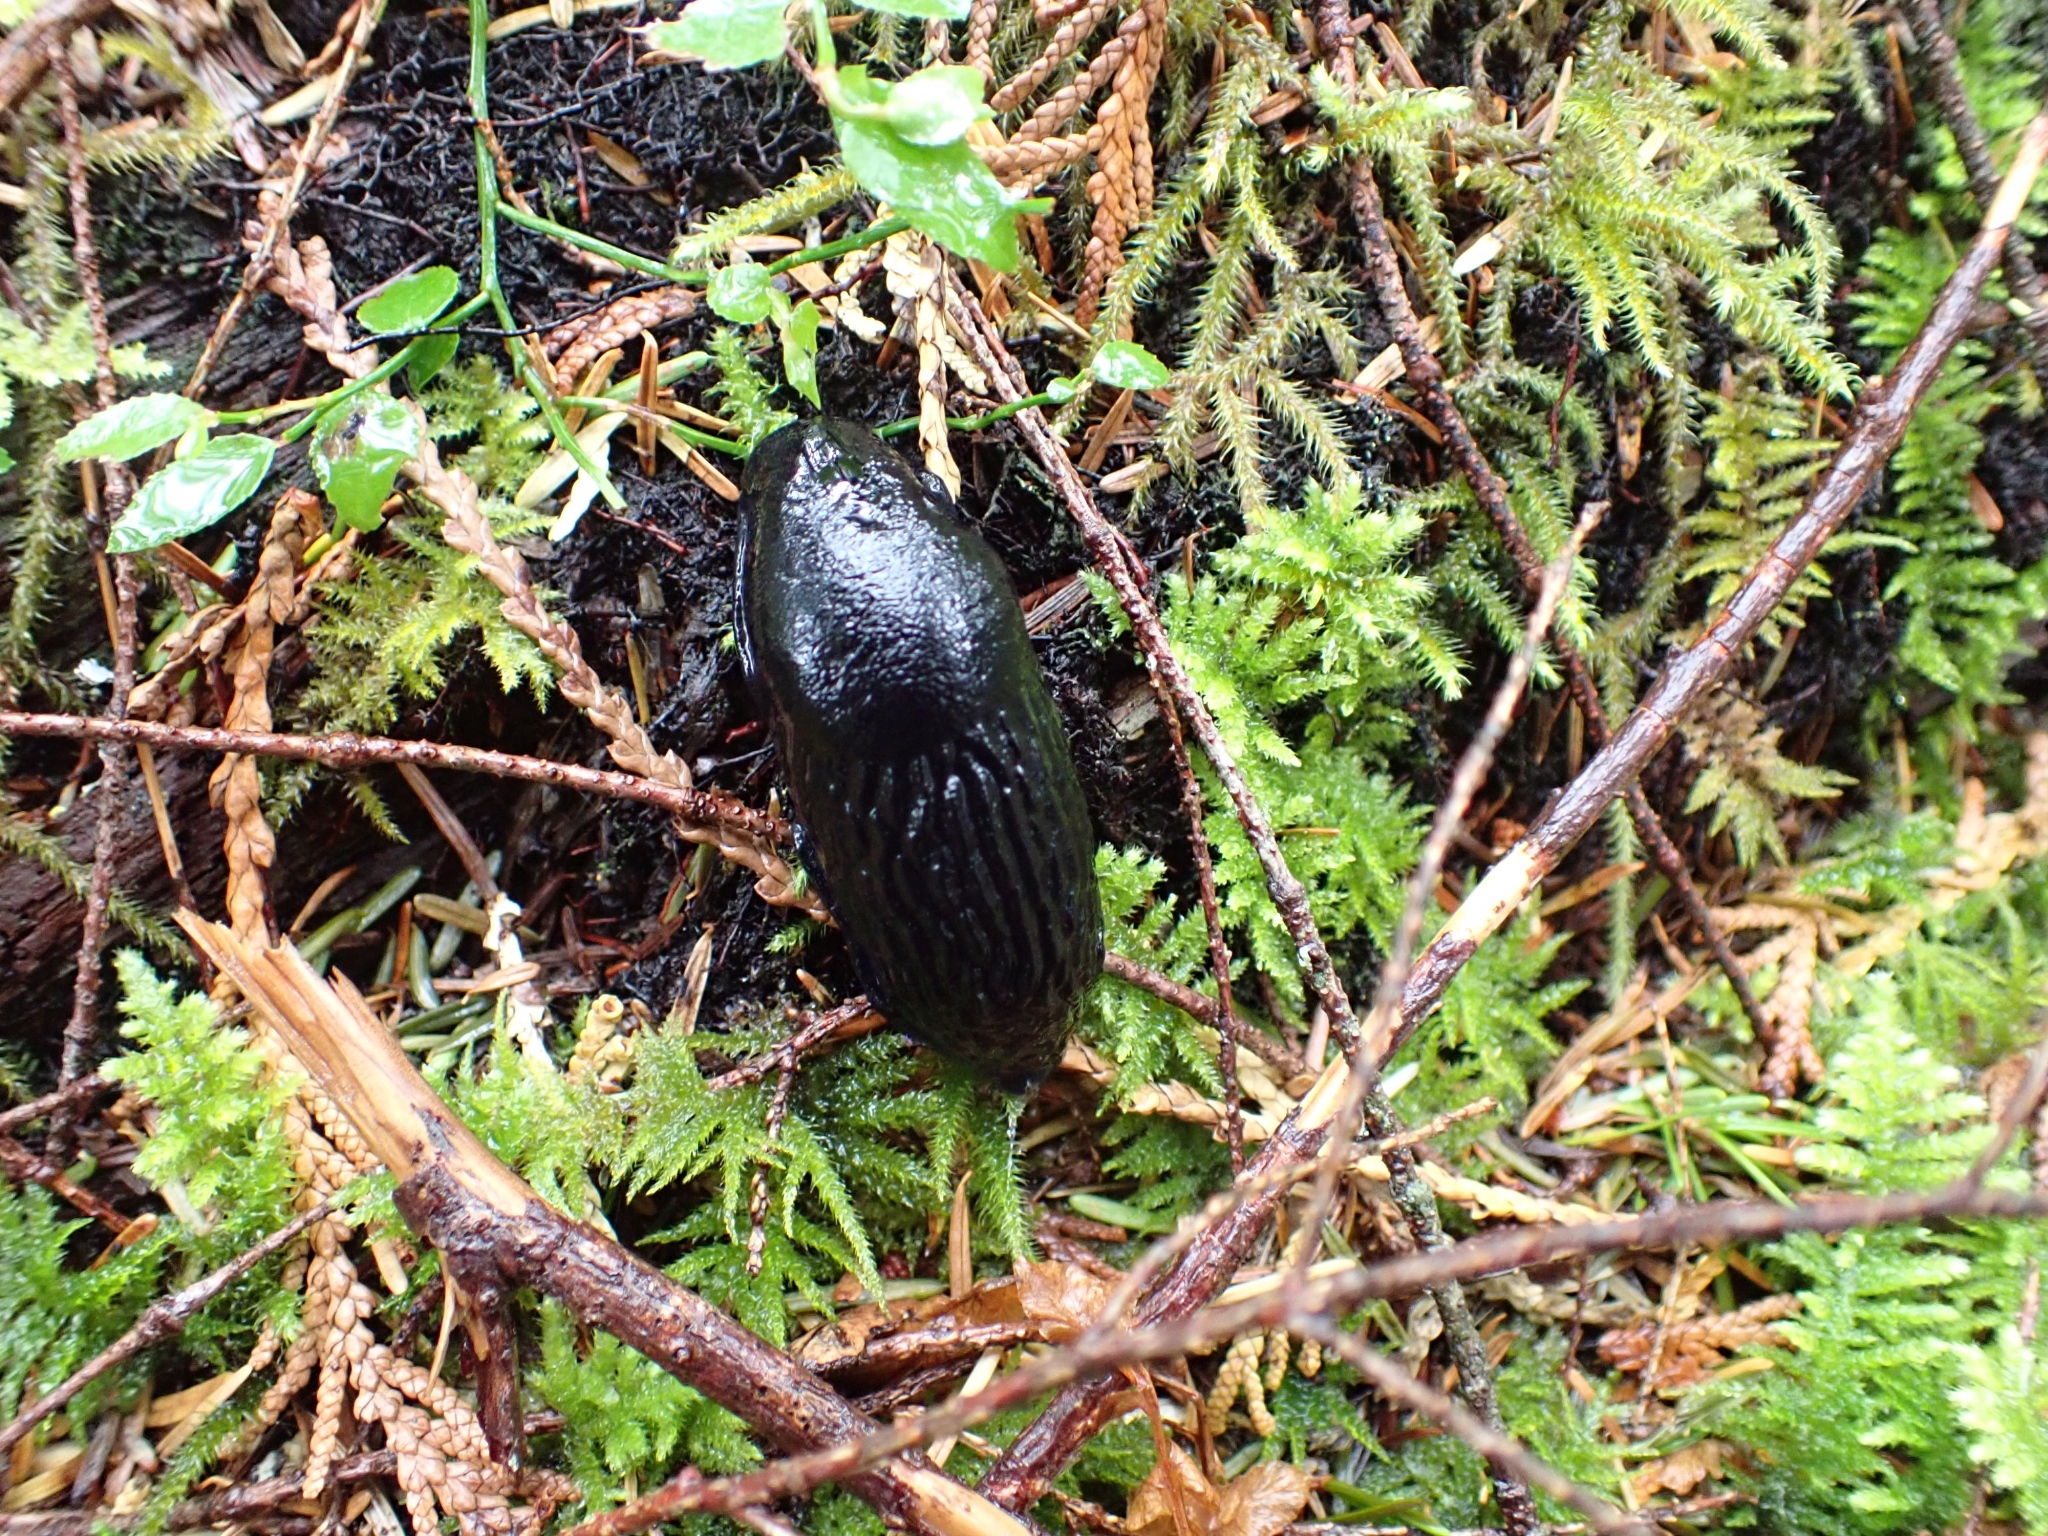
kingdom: Animalia
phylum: Mollusca
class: Gastropoda
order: Stylommatophora
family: Arionidae
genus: Arion
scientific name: Arion
